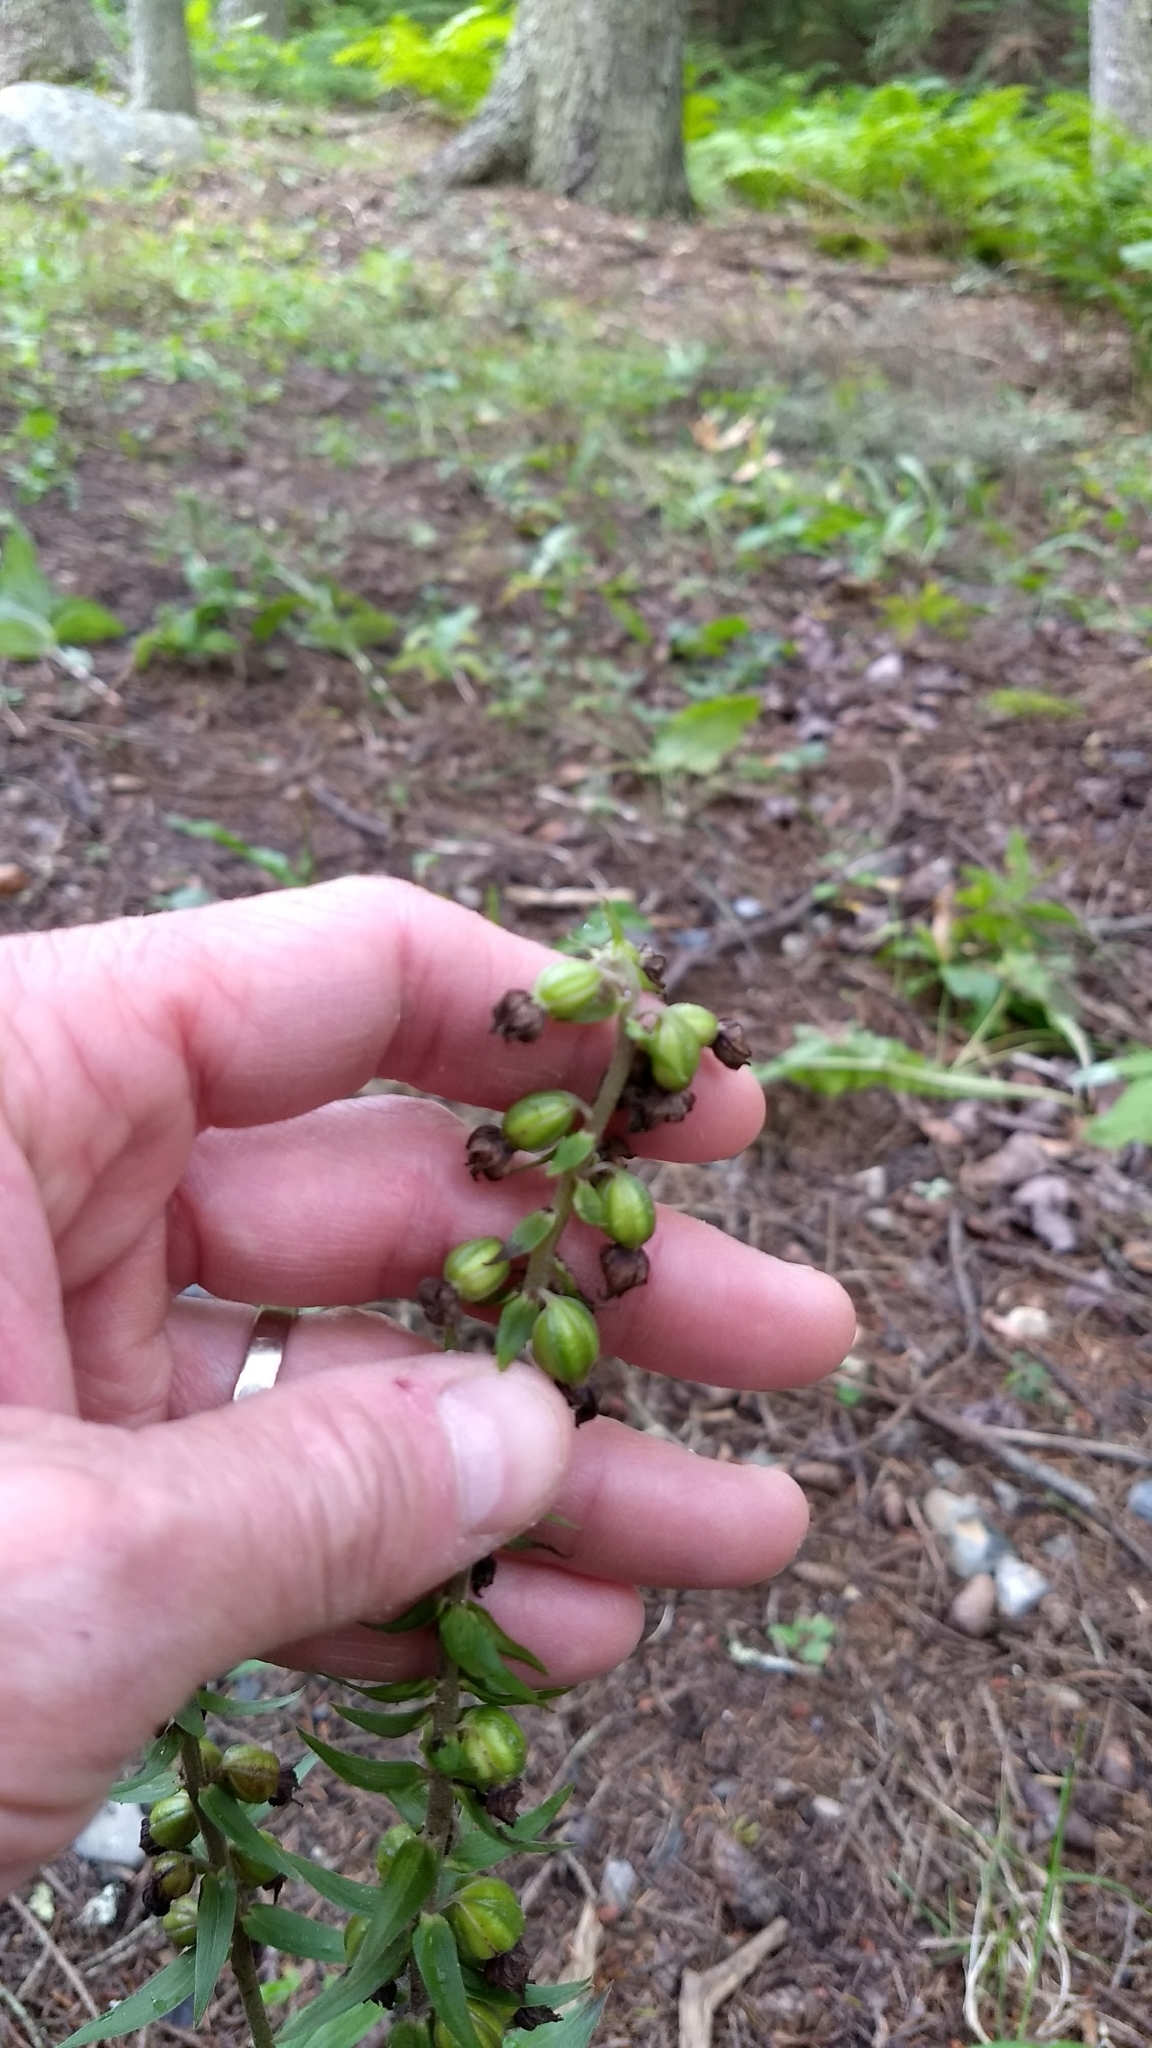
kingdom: Plantae
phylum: Tracheophyta
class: Liliopsida
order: Asparagales
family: Orchidaceae
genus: Epipactis
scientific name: Epipactis helleborine
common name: Broad-leaved helleborine
